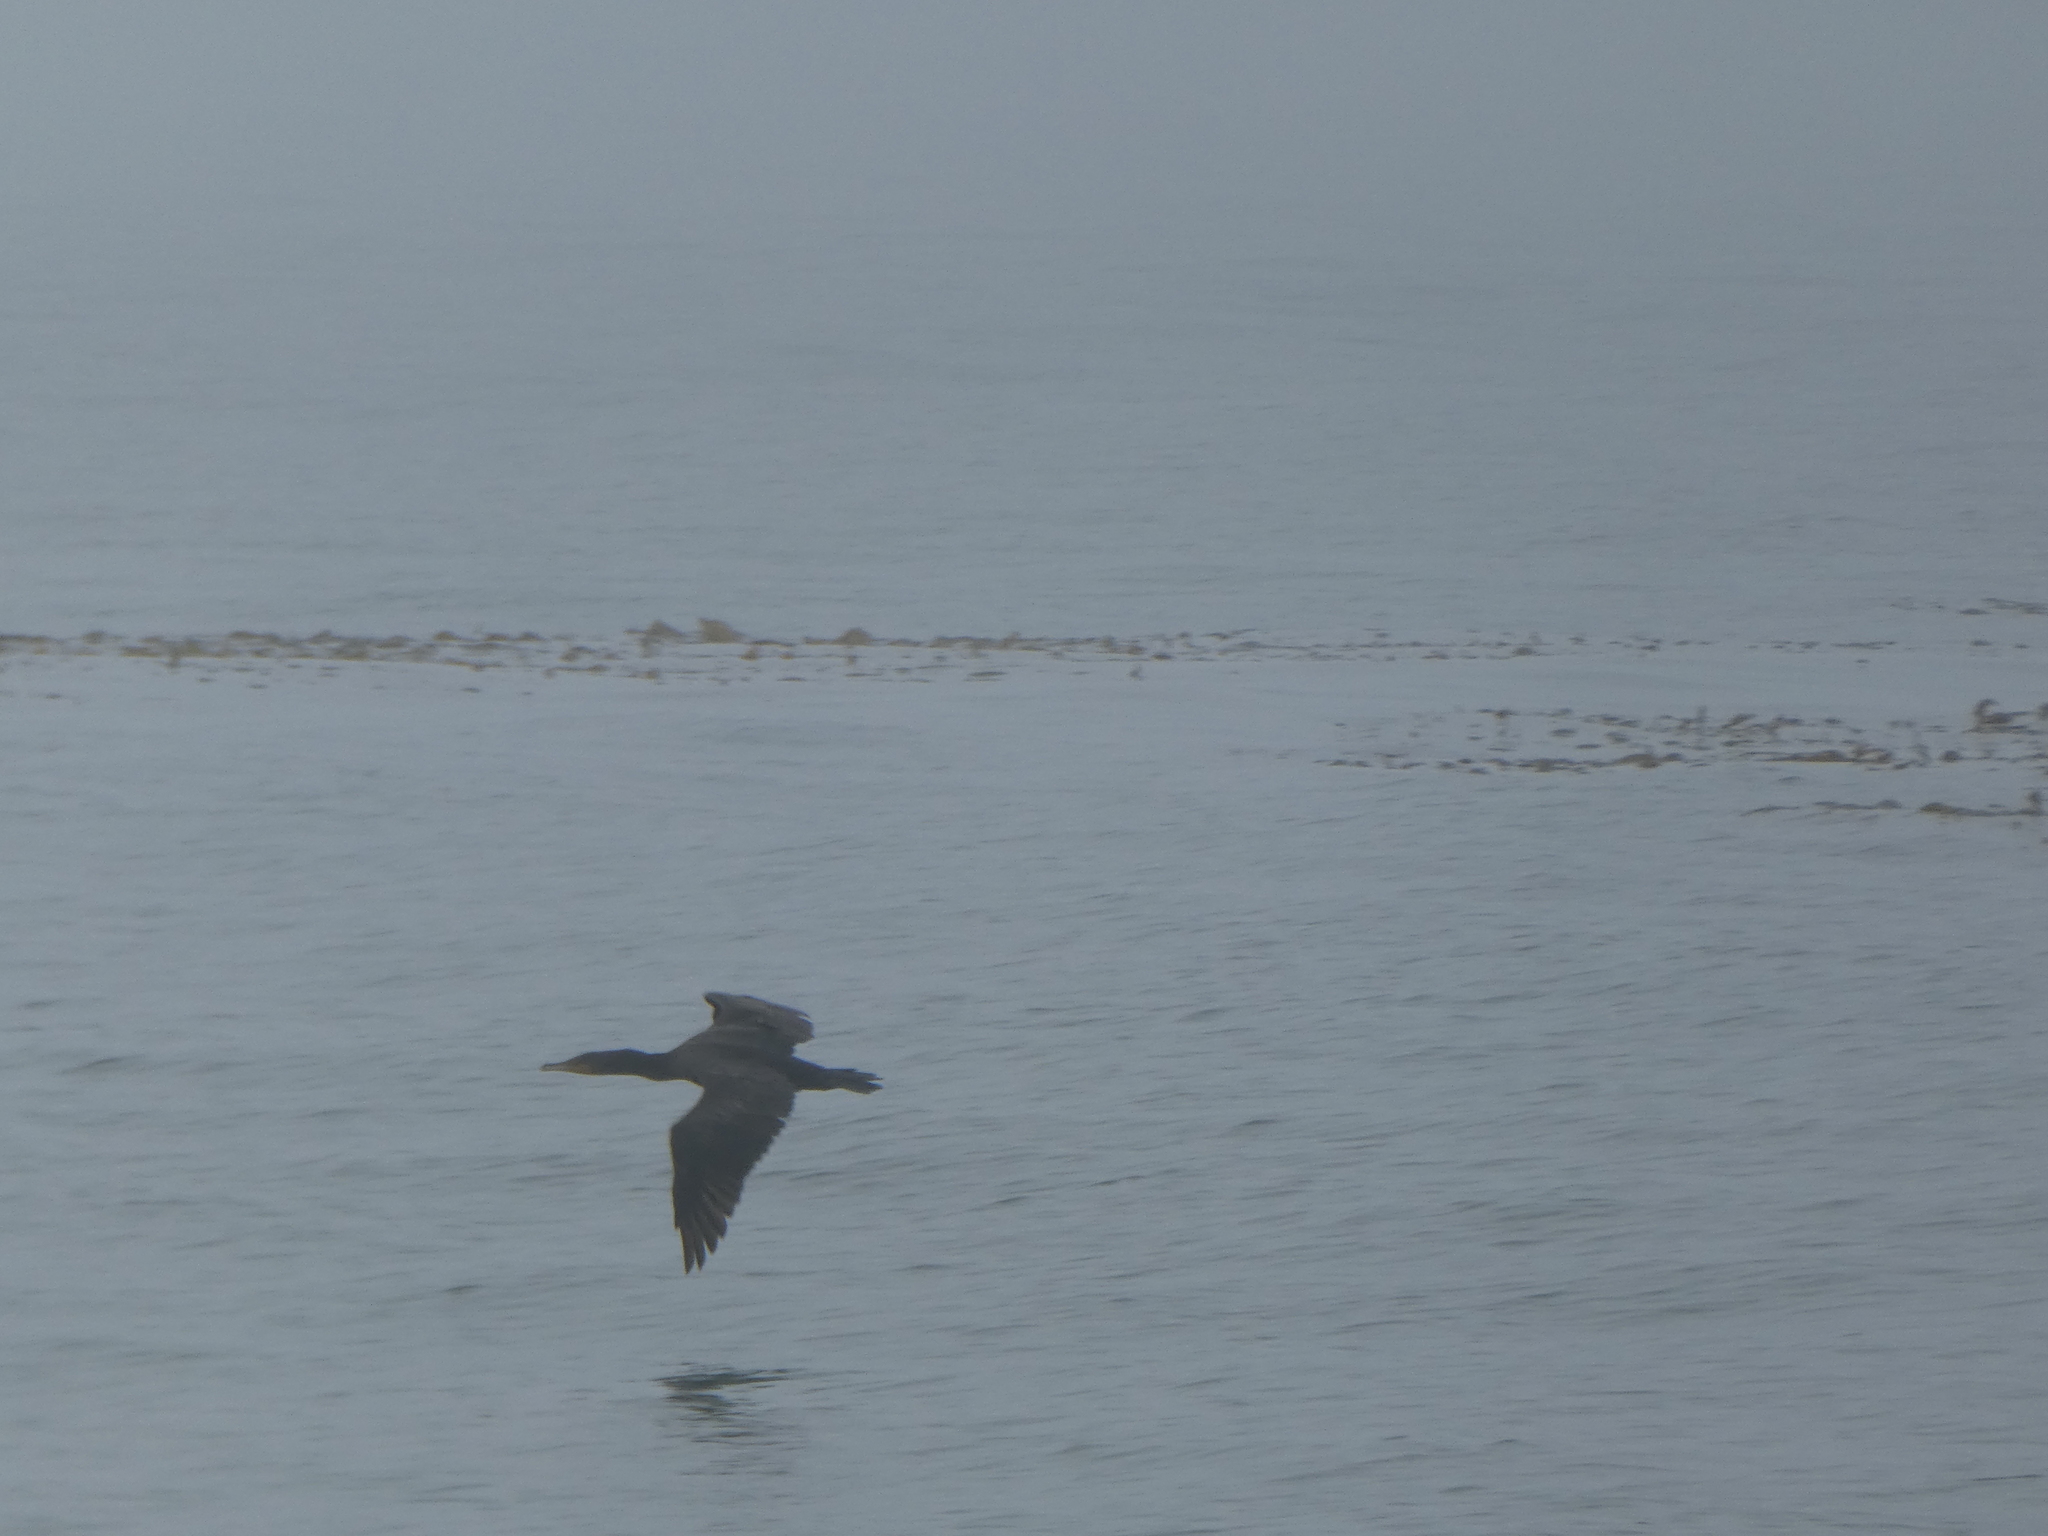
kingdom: Animalia
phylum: Chordata
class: Aves
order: Suliformes
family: Phalacrocoracidae
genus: Phalacrocorax
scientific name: Phalacrocorax auritus
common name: Double-crested cormorant
